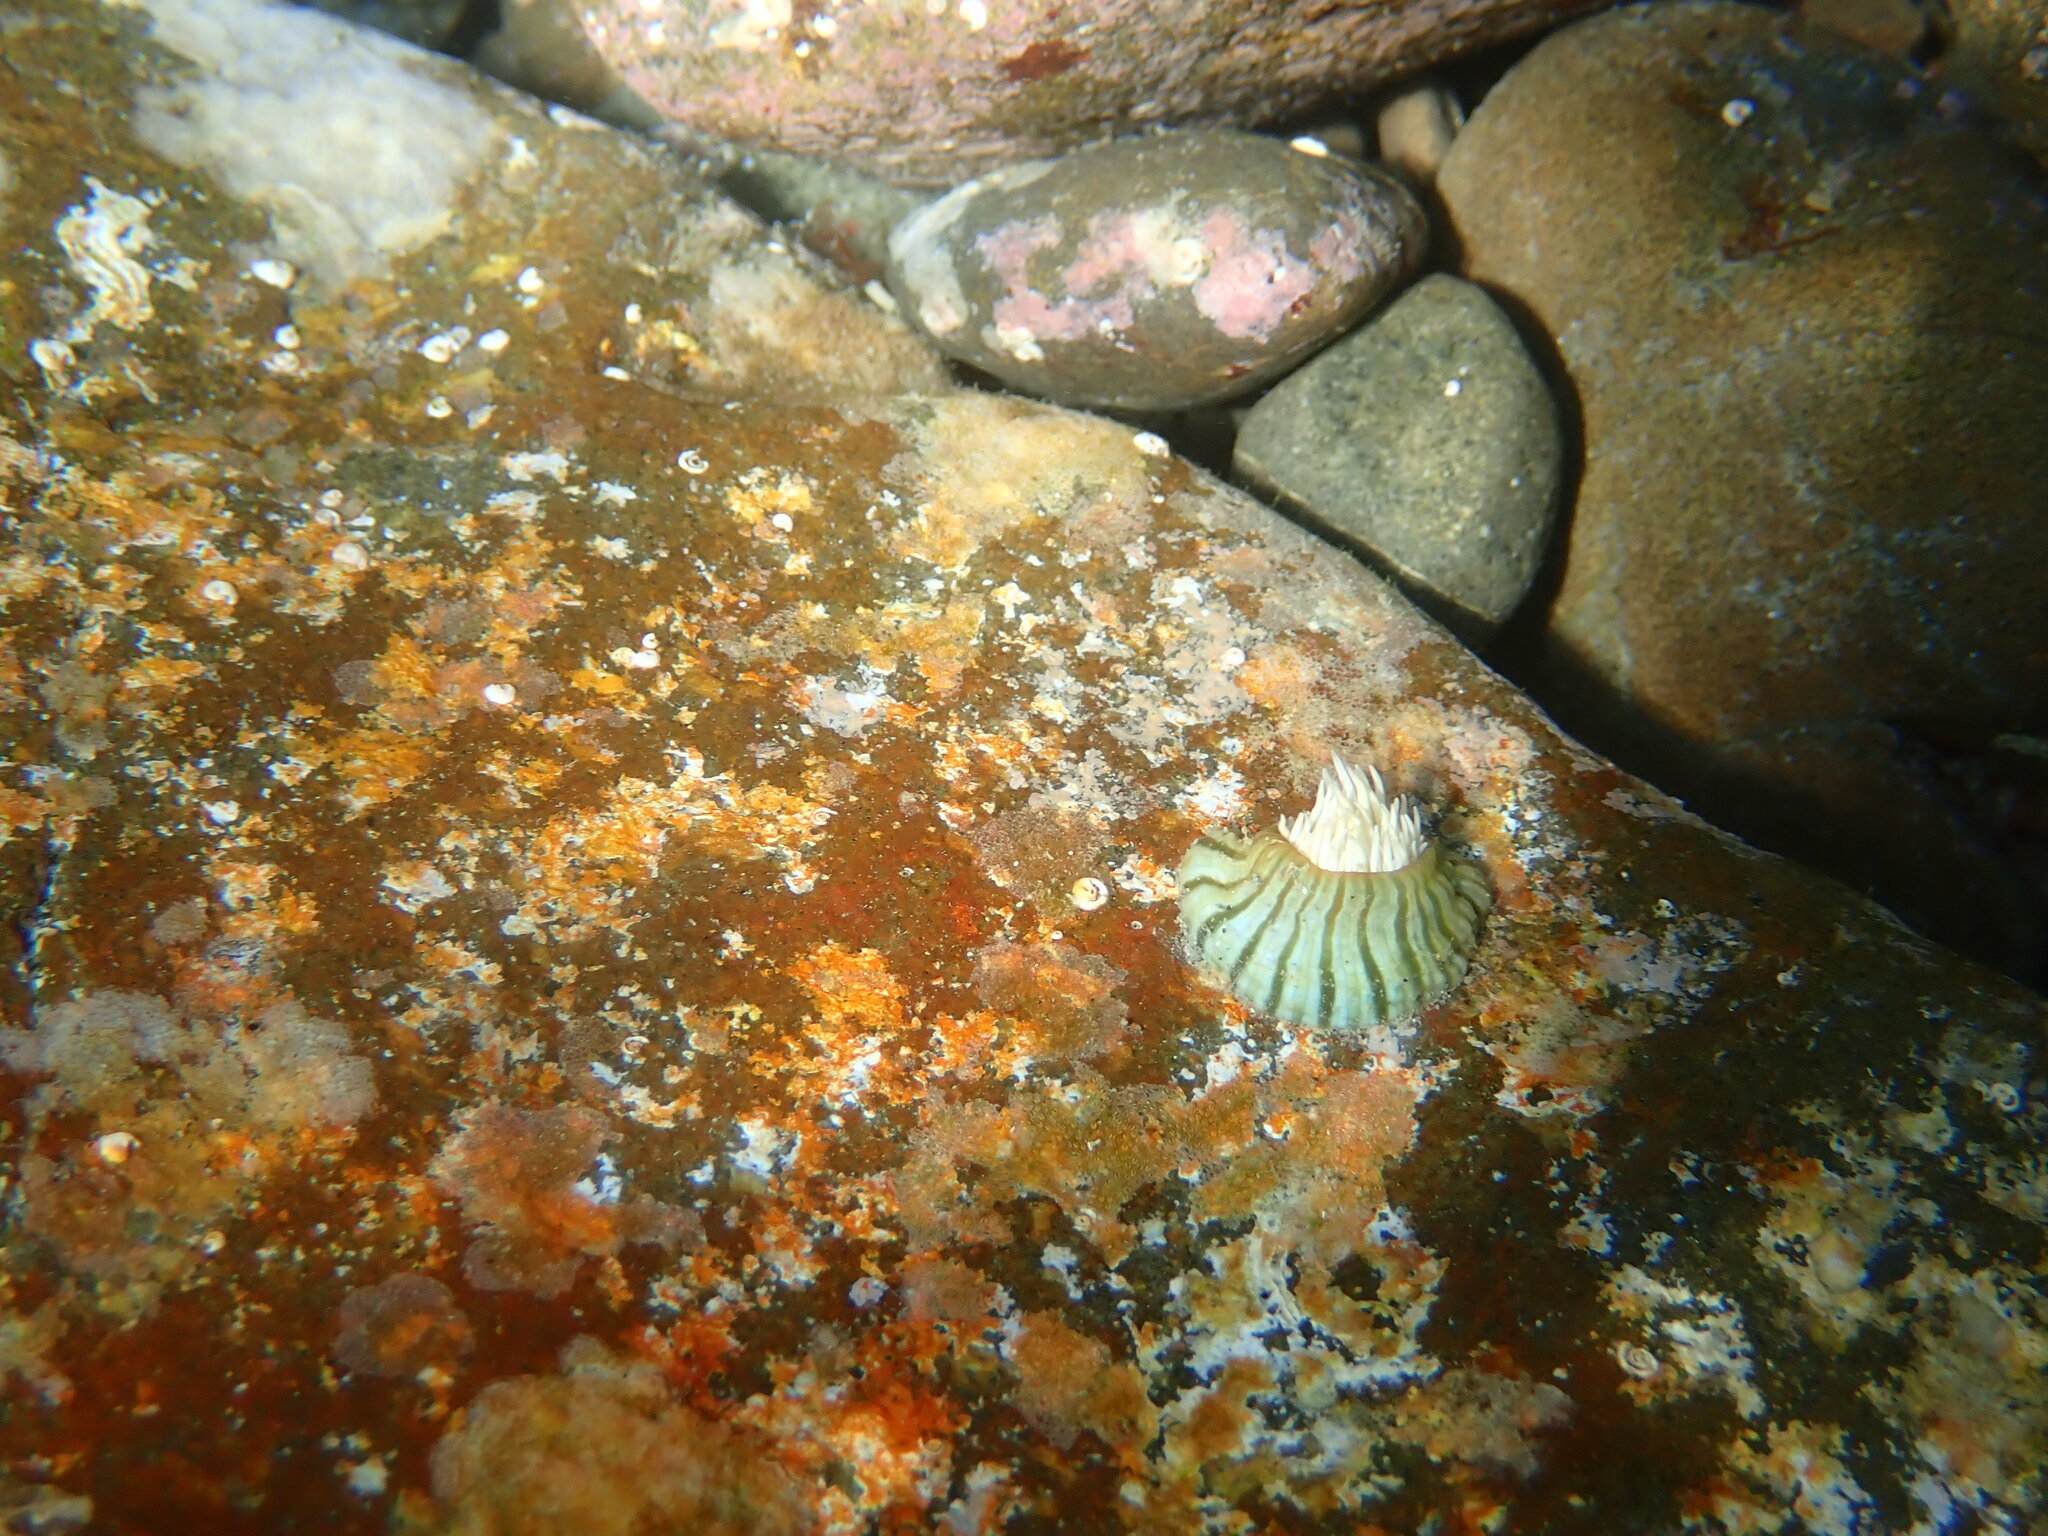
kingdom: Animalia
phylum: Cnidaria
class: Anthozoa
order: Actiniaria
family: Sagartiidae
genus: Anthothoe
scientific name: Anthothoe albocincta
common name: Orange striped anemone
